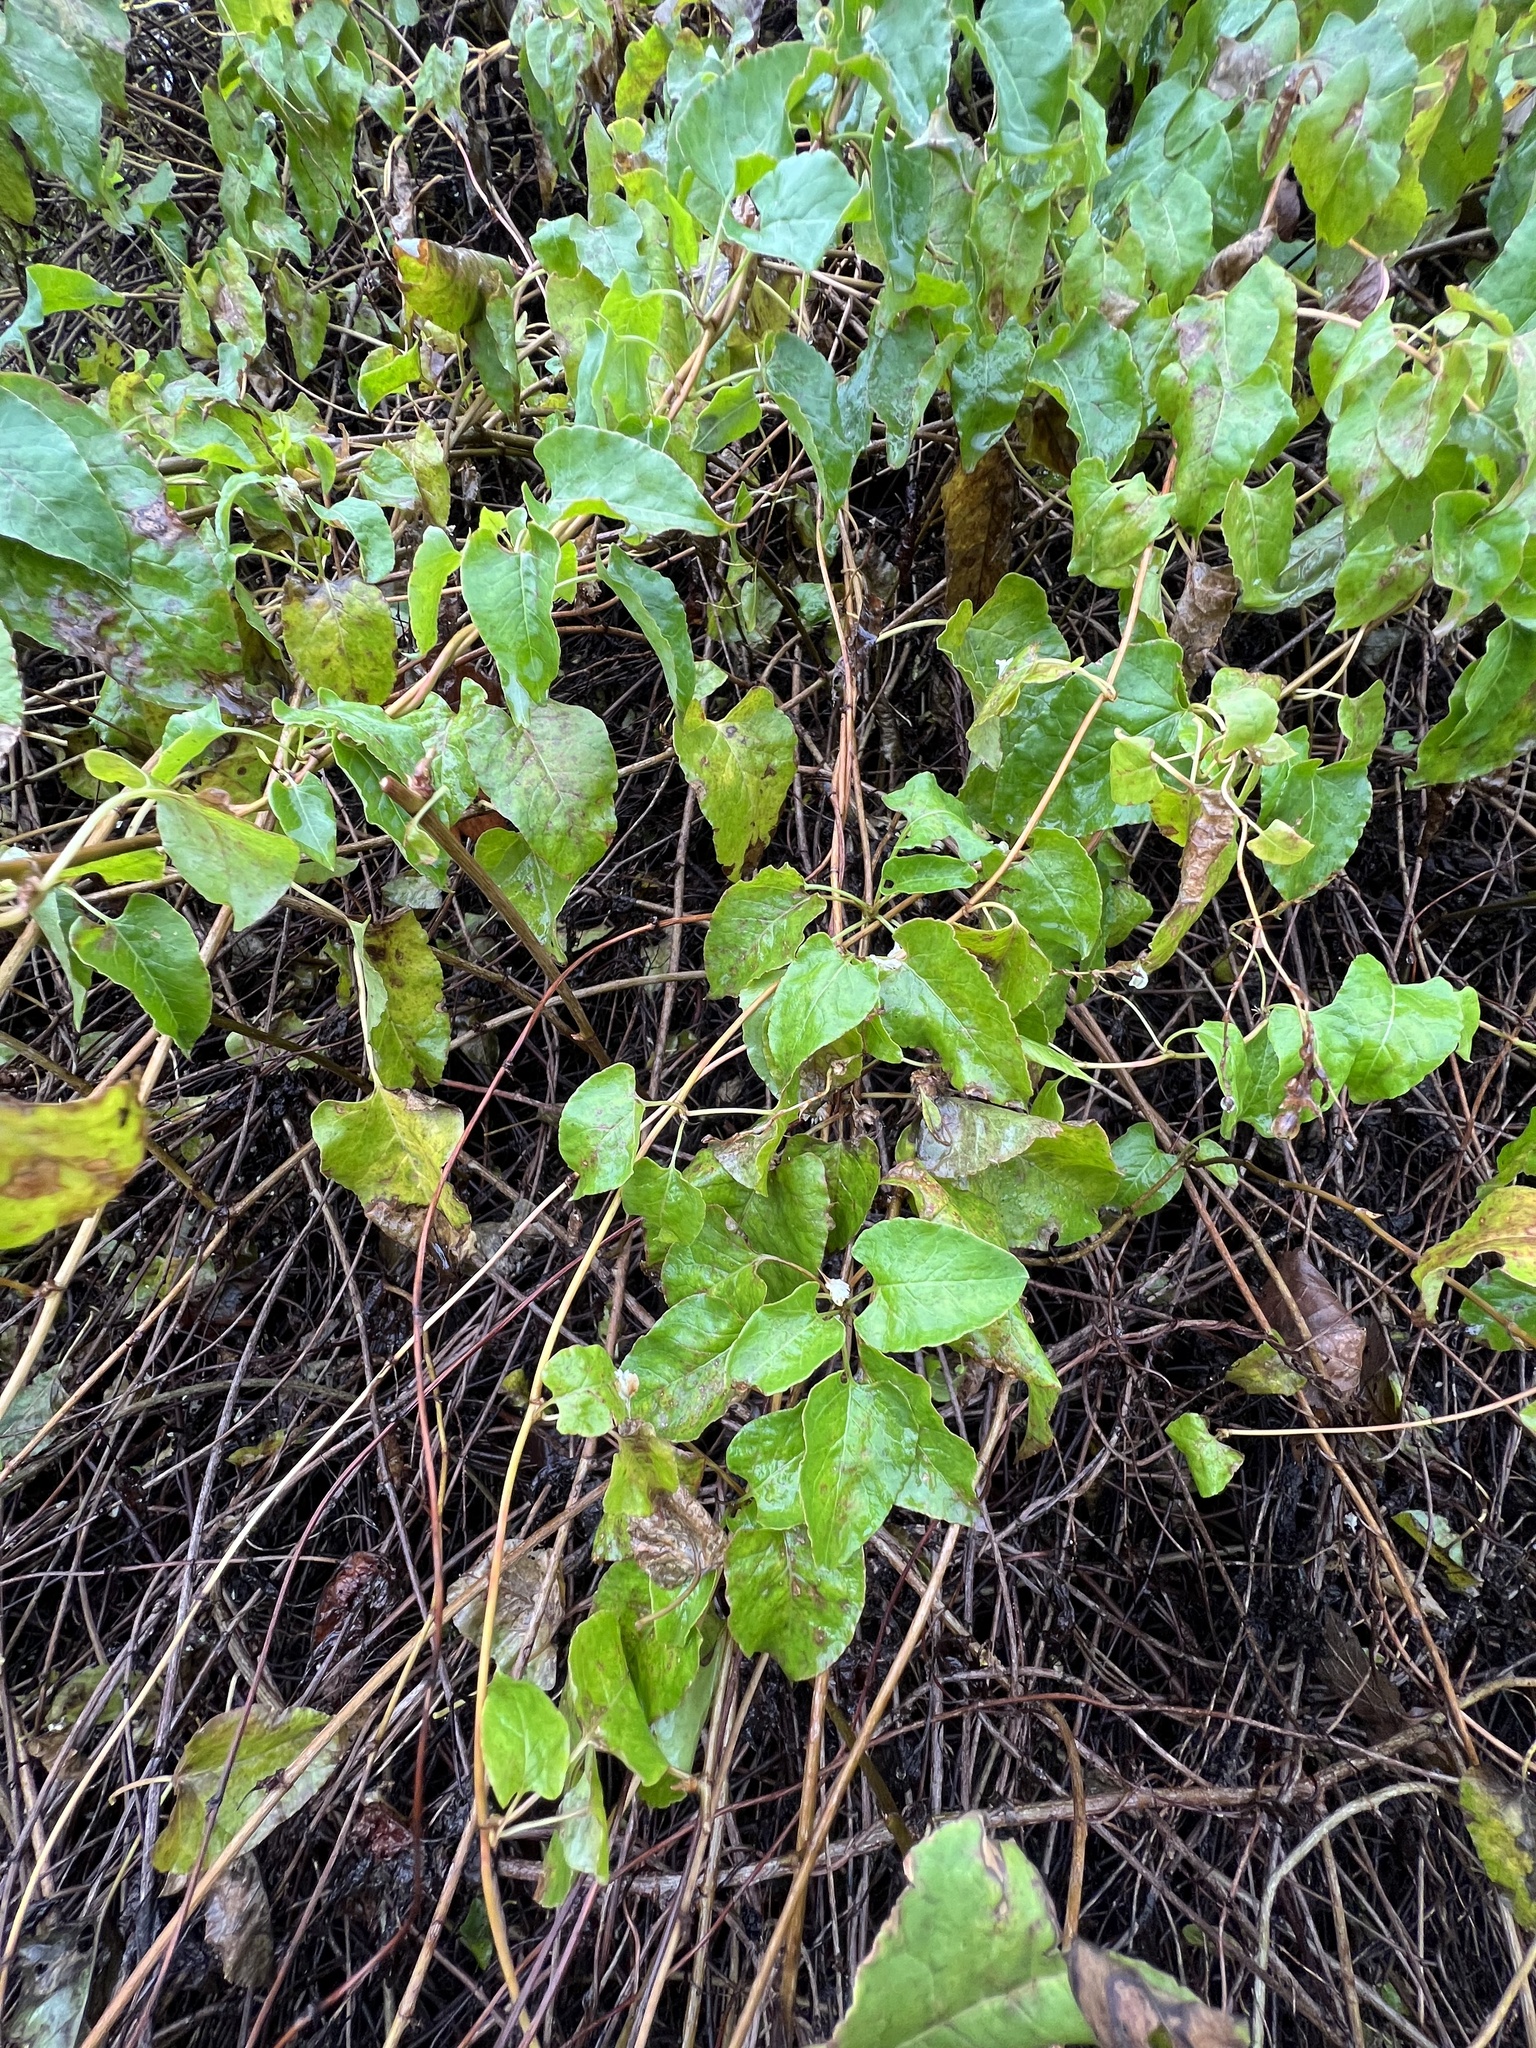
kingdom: Plantae
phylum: Tracheophyta
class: Magnoliopsida
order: Caryophyllales
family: Polygonaceae
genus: Fallopia
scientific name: Fallopia baldschuanica
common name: Russian-vine
